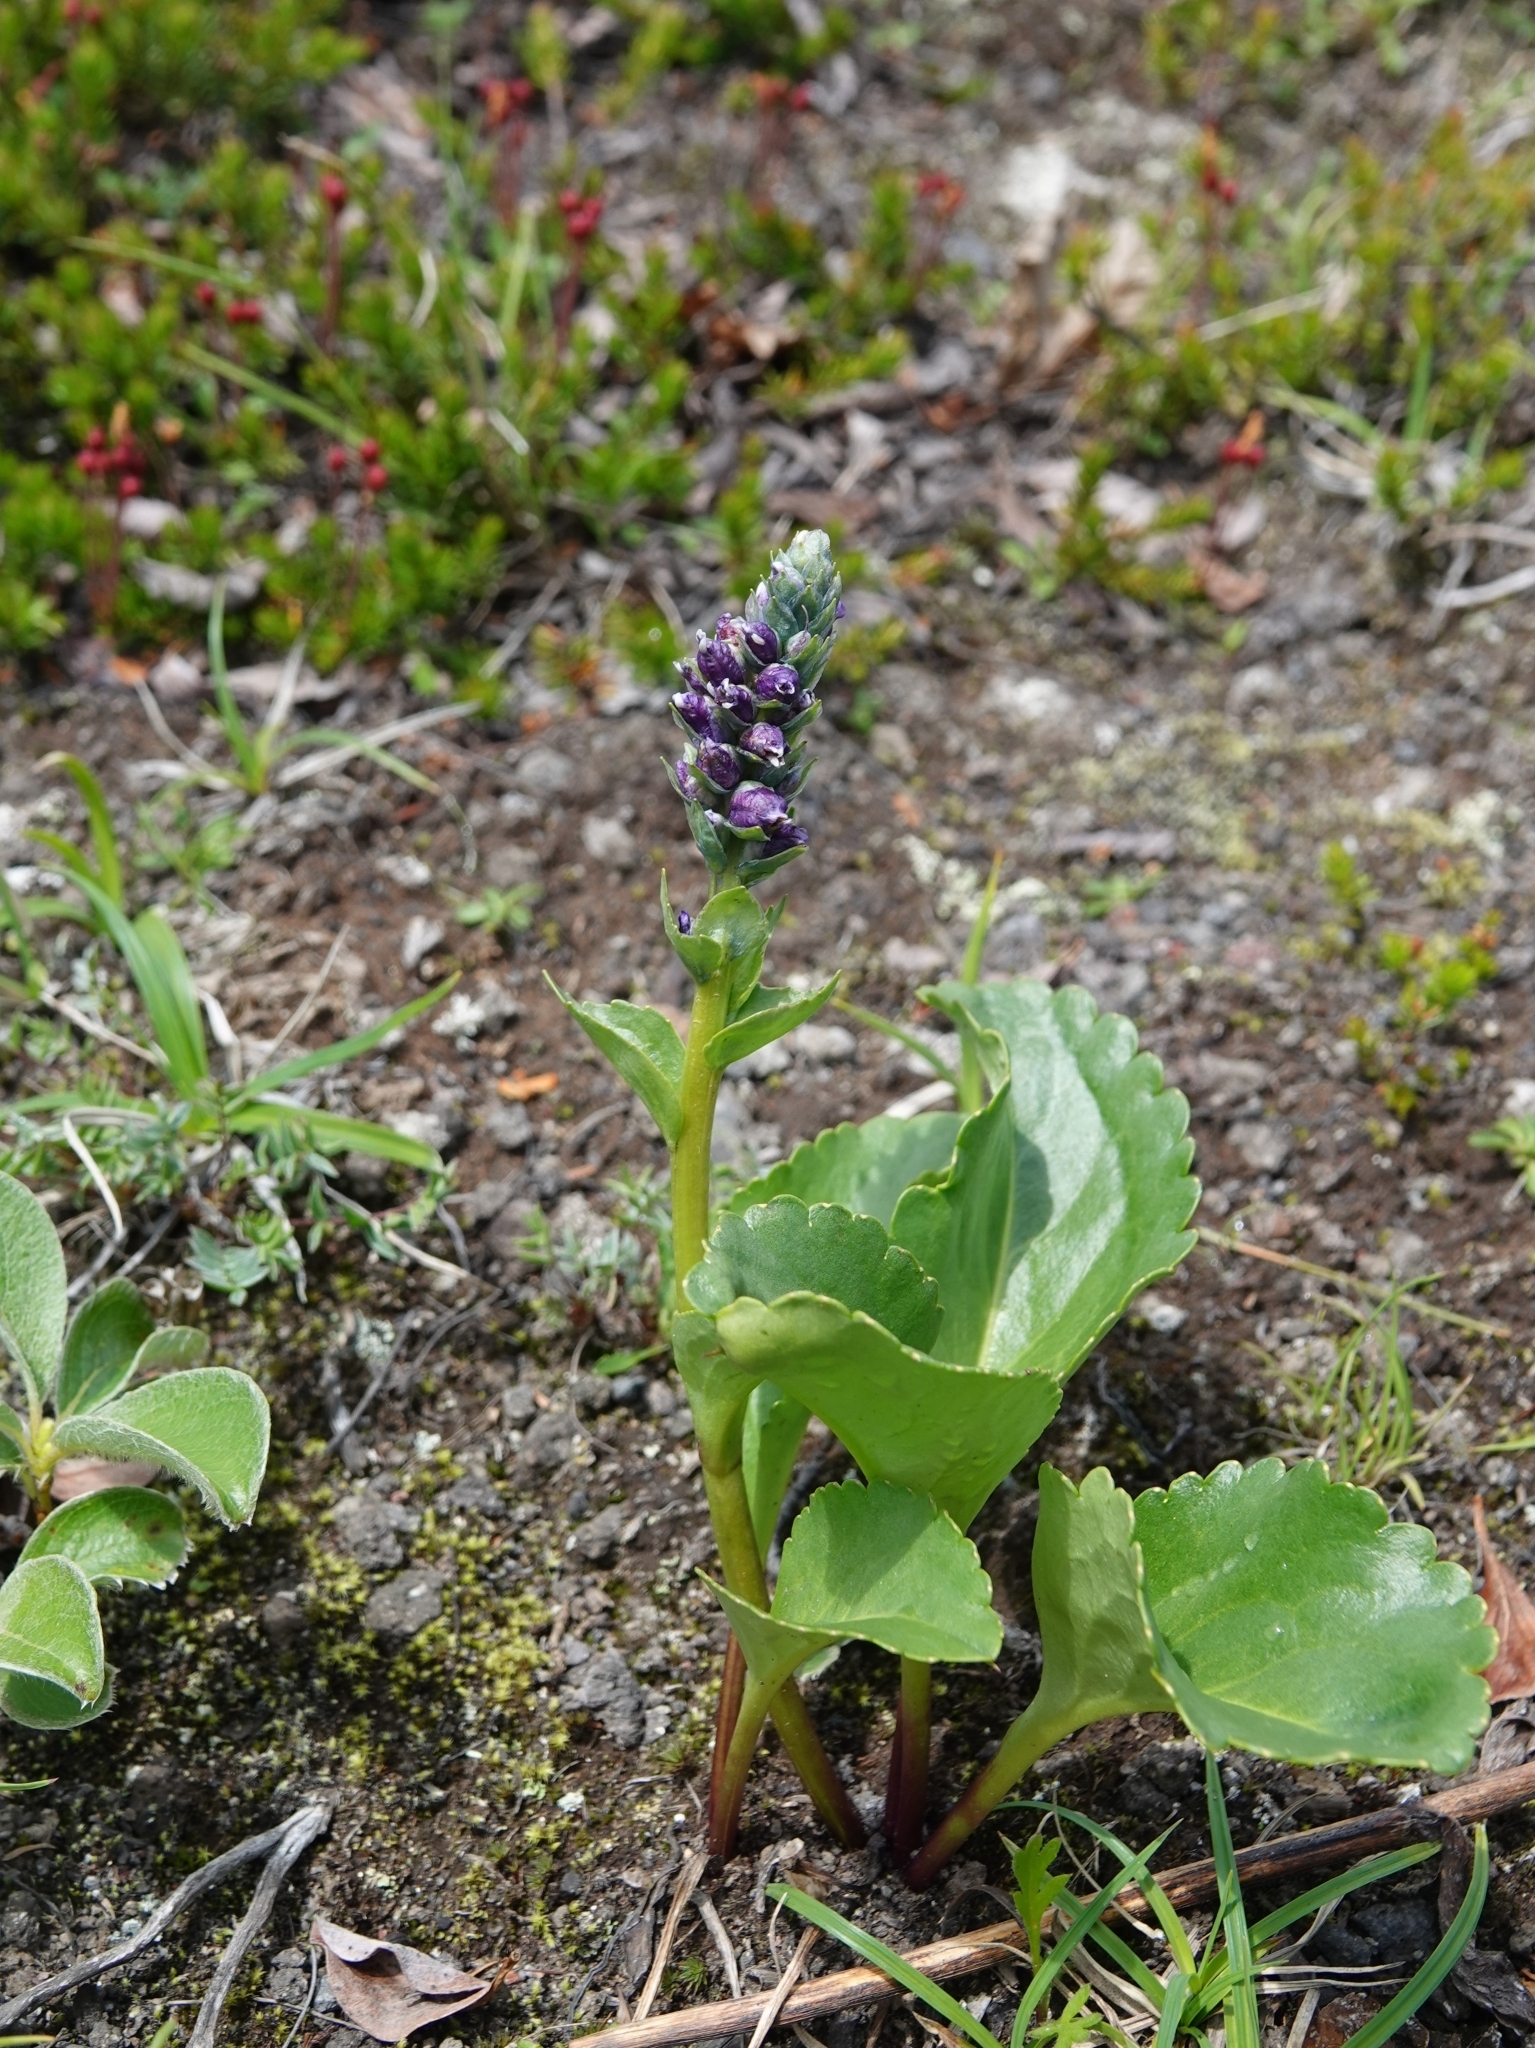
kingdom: Plantae
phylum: Tracheophyta
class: Magnoliopsida
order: Lamiales
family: Plantaginaceae
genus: Lagotis
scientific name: Lagotis glauca
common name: Glaucous weaselsnout
